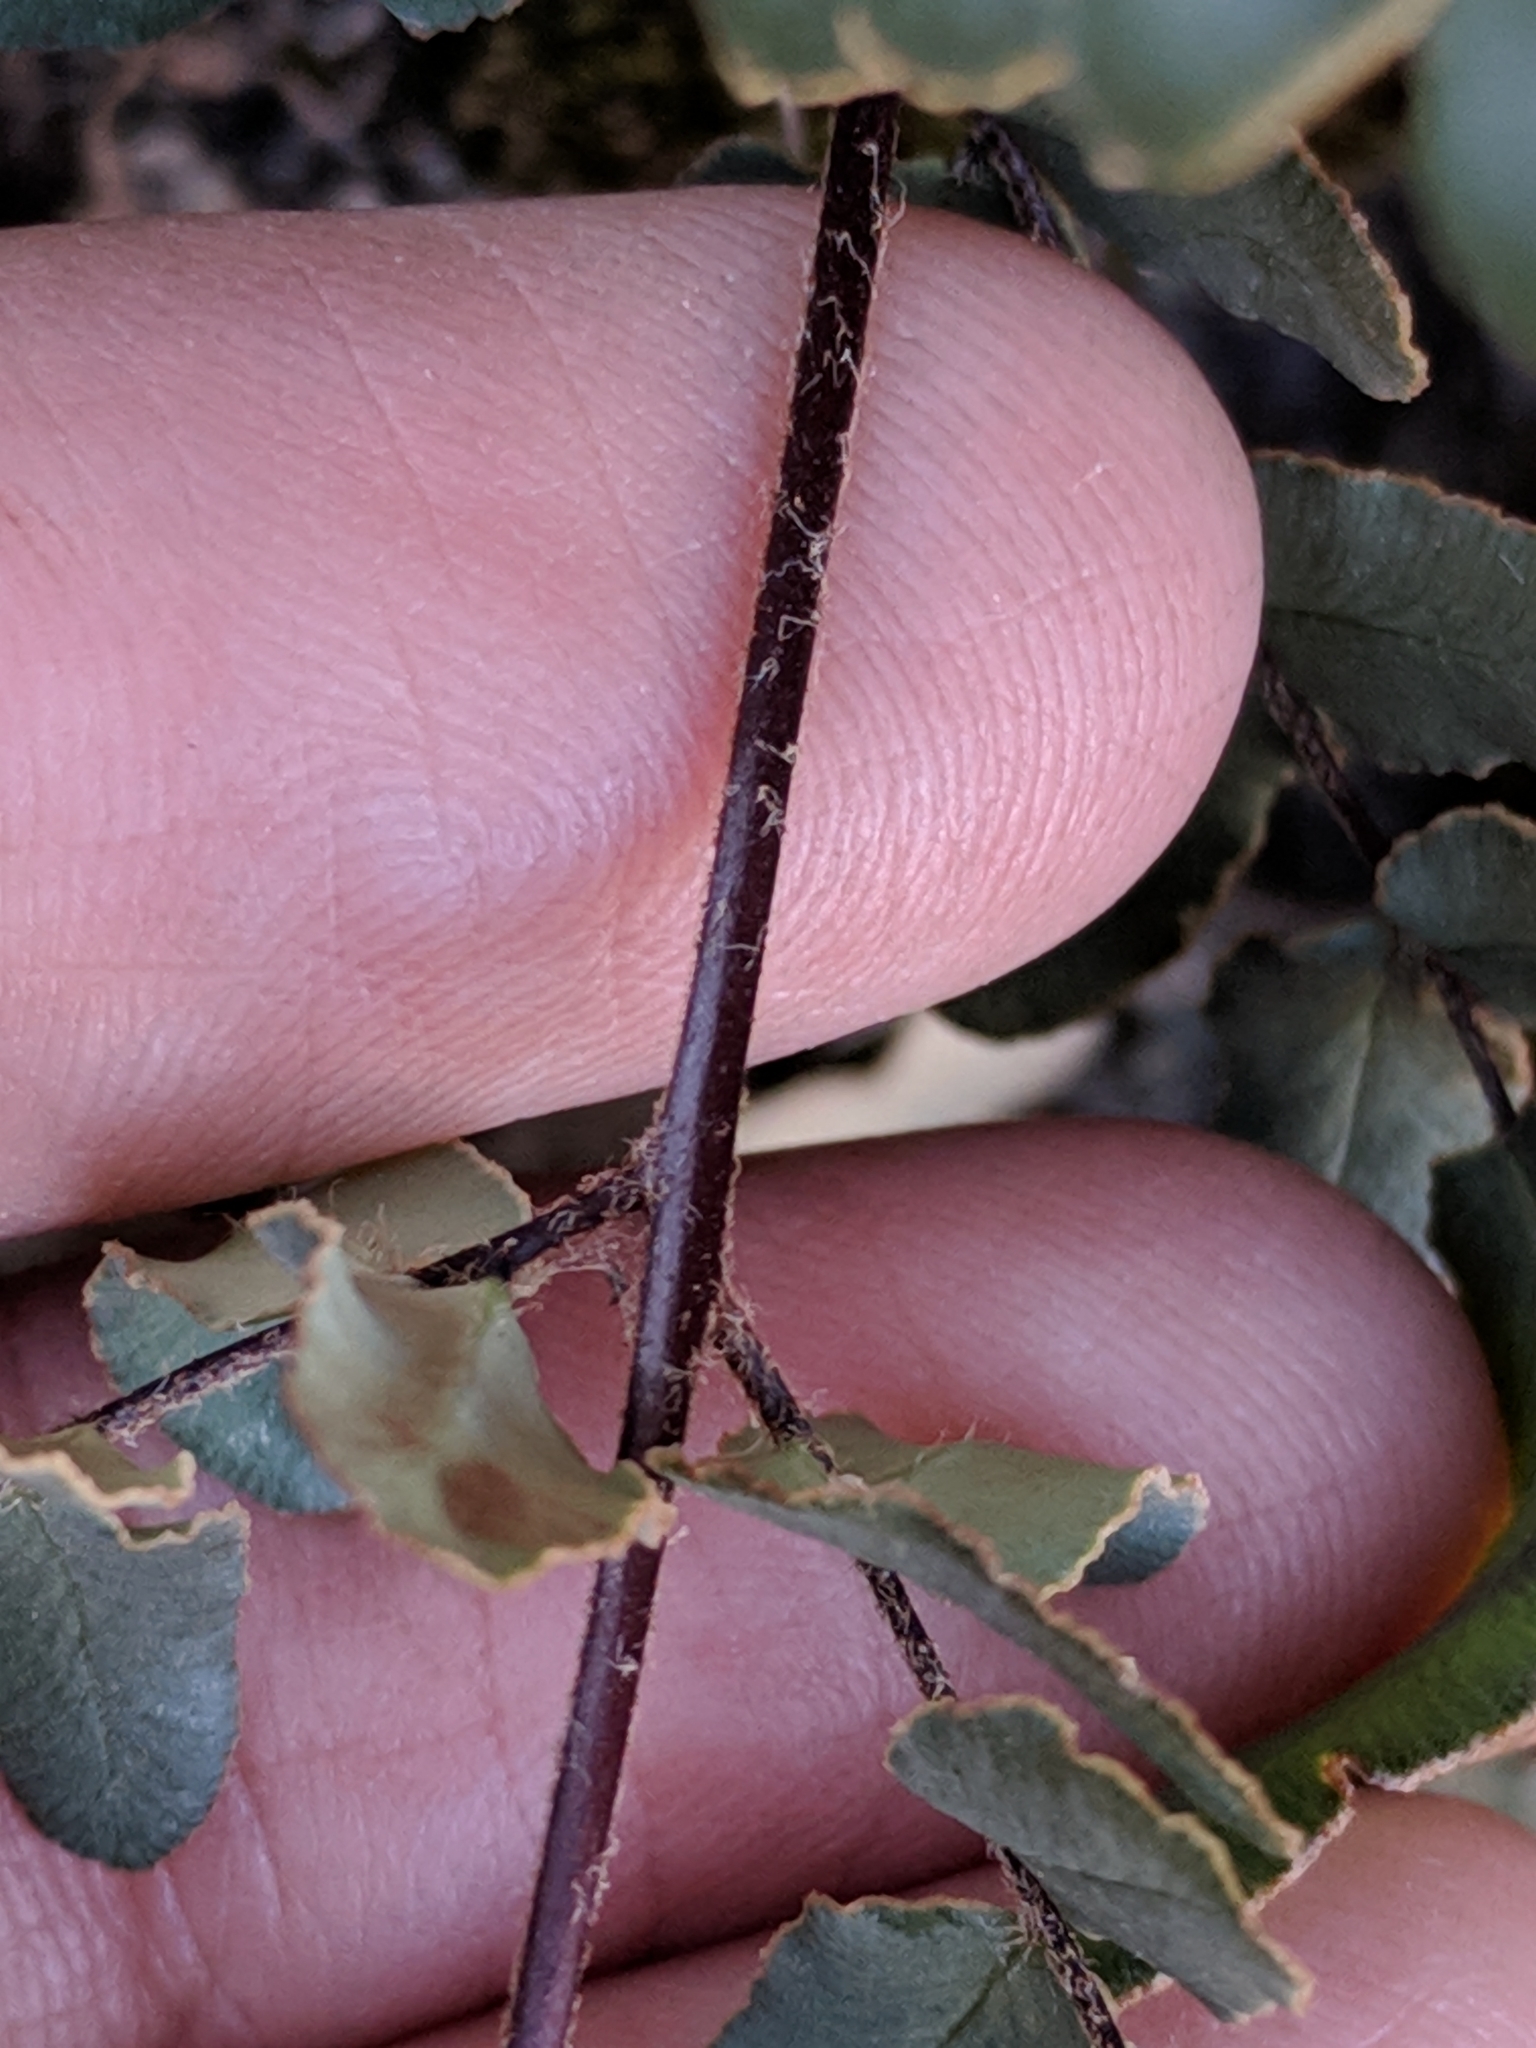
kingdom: Plantae
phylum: Tracheophyta
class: Polypodiopsida
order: Polypodiales
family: Pteridaceae
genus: Pellaea
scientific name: Pellaea atropurpurea
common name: Hairy cliffbrake
